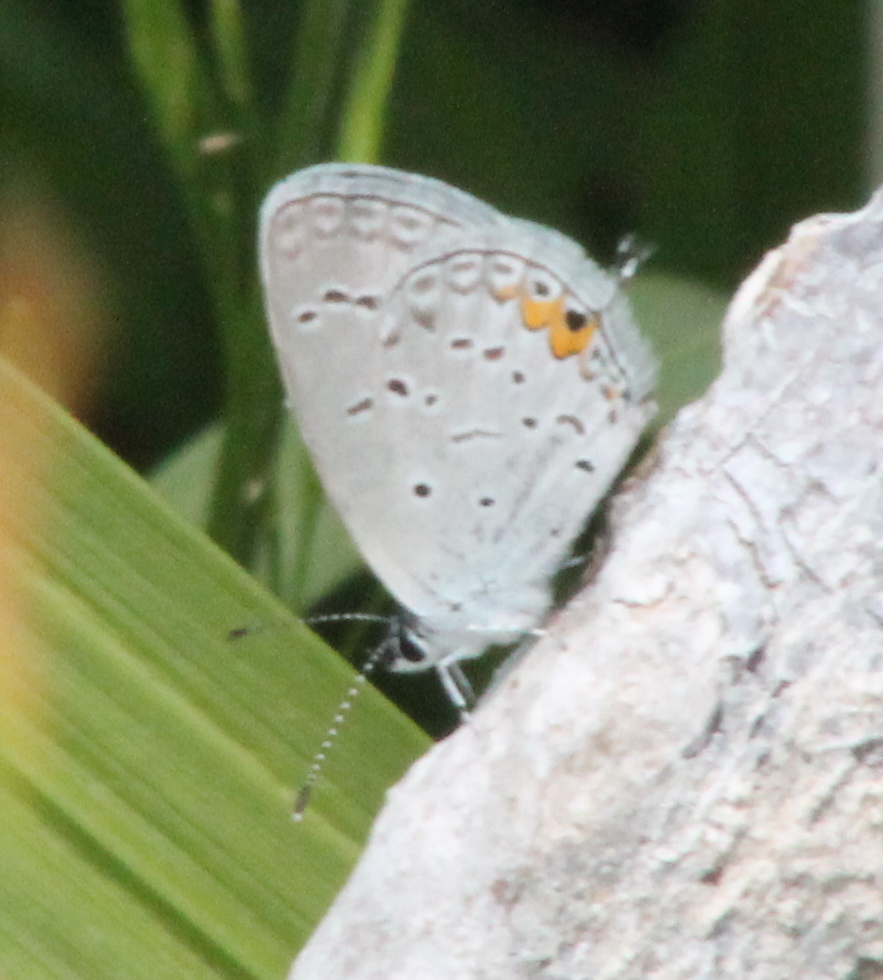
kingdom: Animalia
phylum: Arthropoda
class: Insecta
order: Lepidoptera
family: Lycaenidae
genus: Elkalyce
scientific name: Elkalyce comyntas
